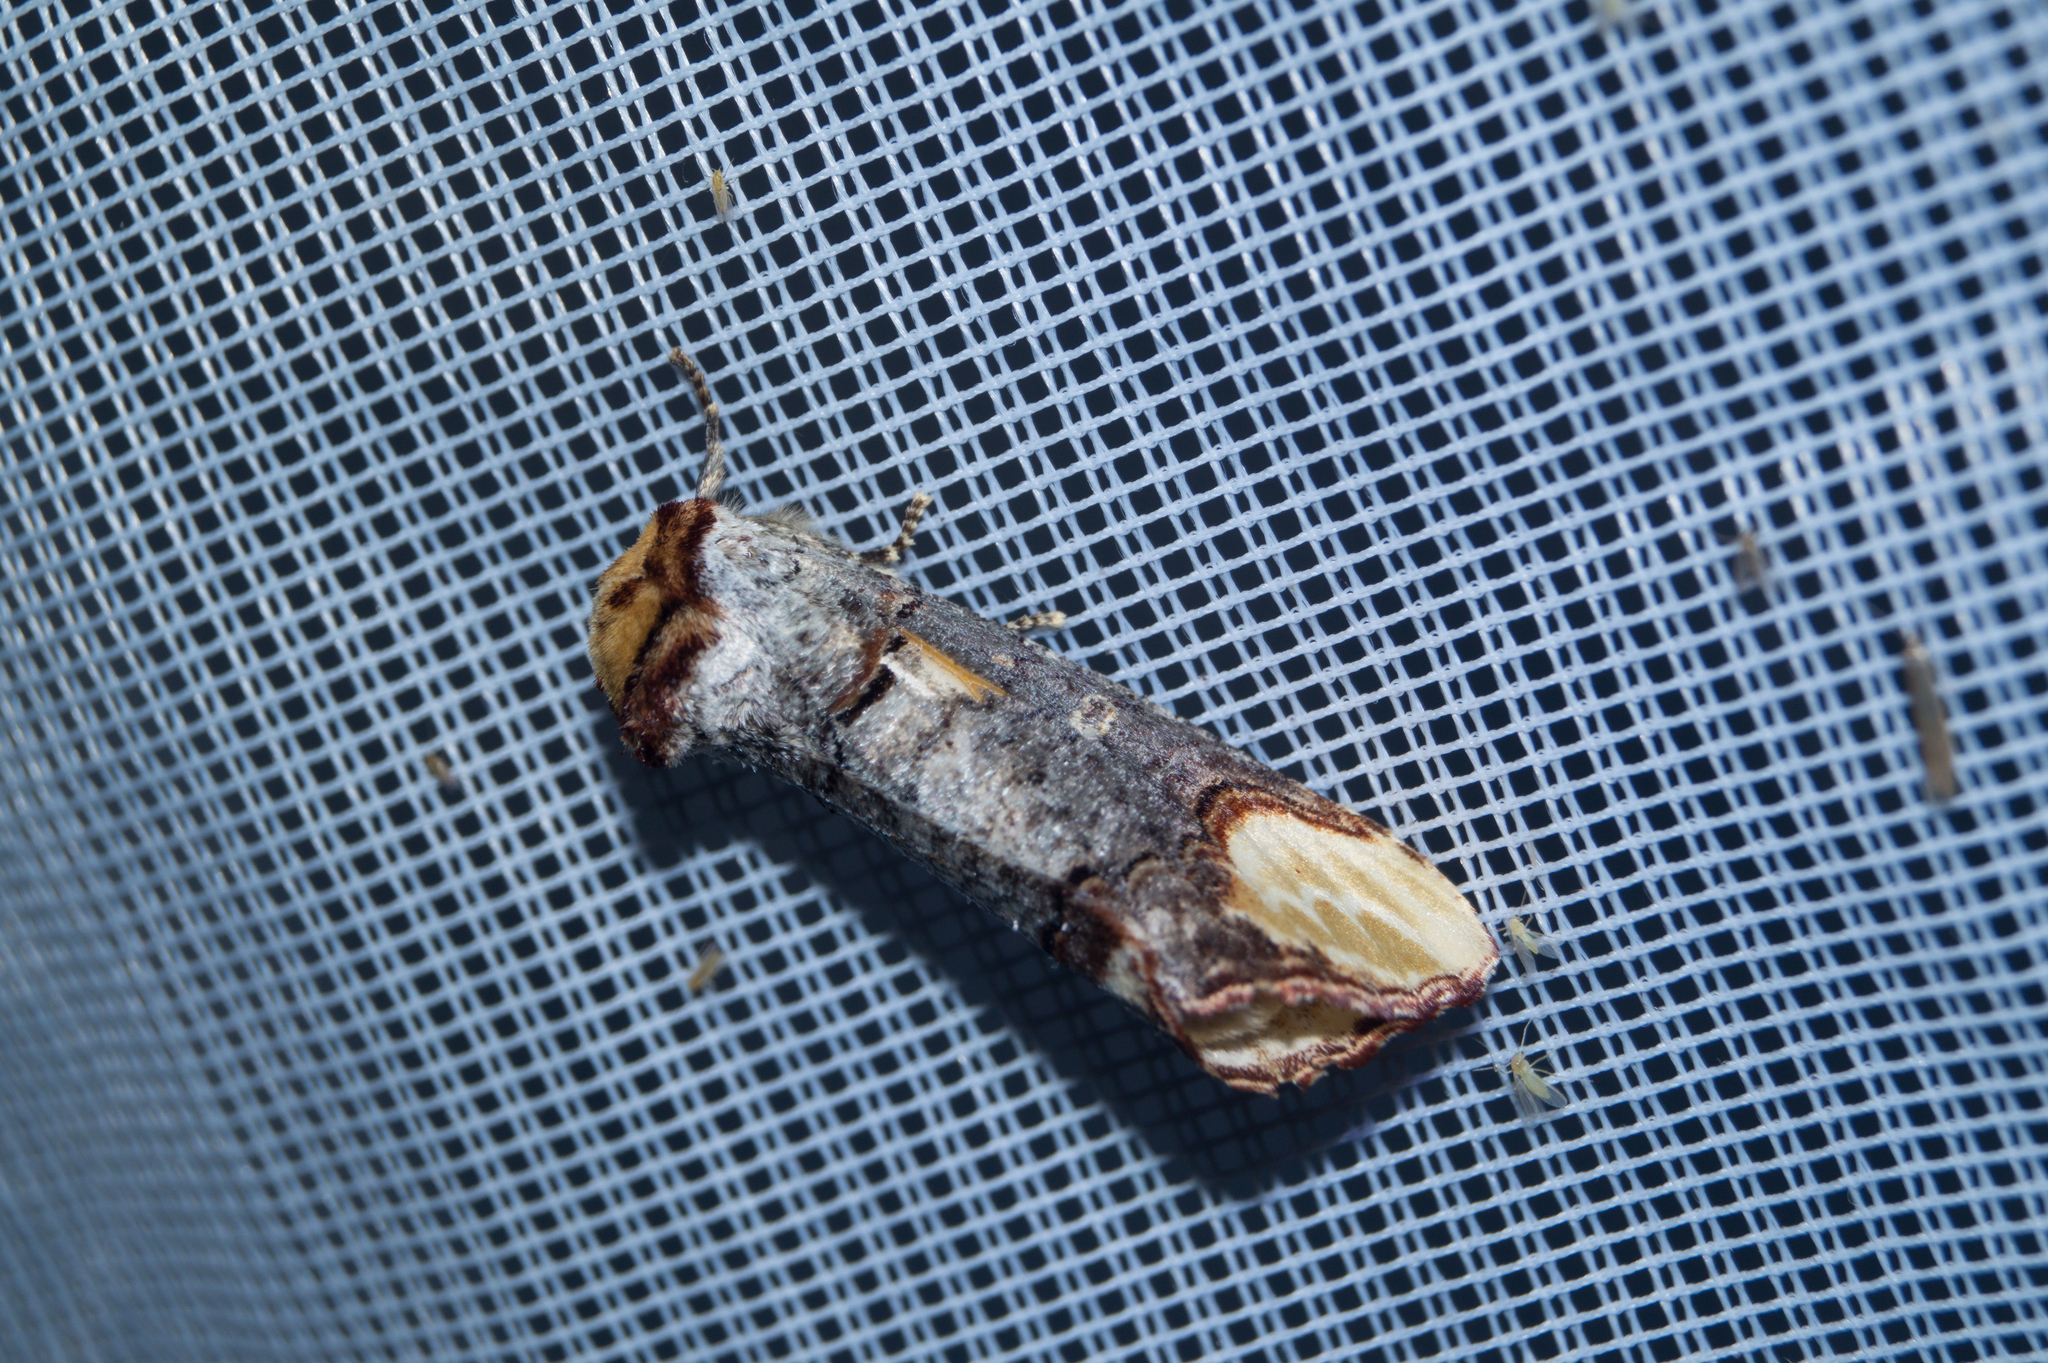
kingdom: Animalia
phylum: Arthropoda
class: Insecta
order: Lepidoptera
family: Notodontidae
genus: Phalera
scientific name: Phalera bucephala
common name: Buff-tip
